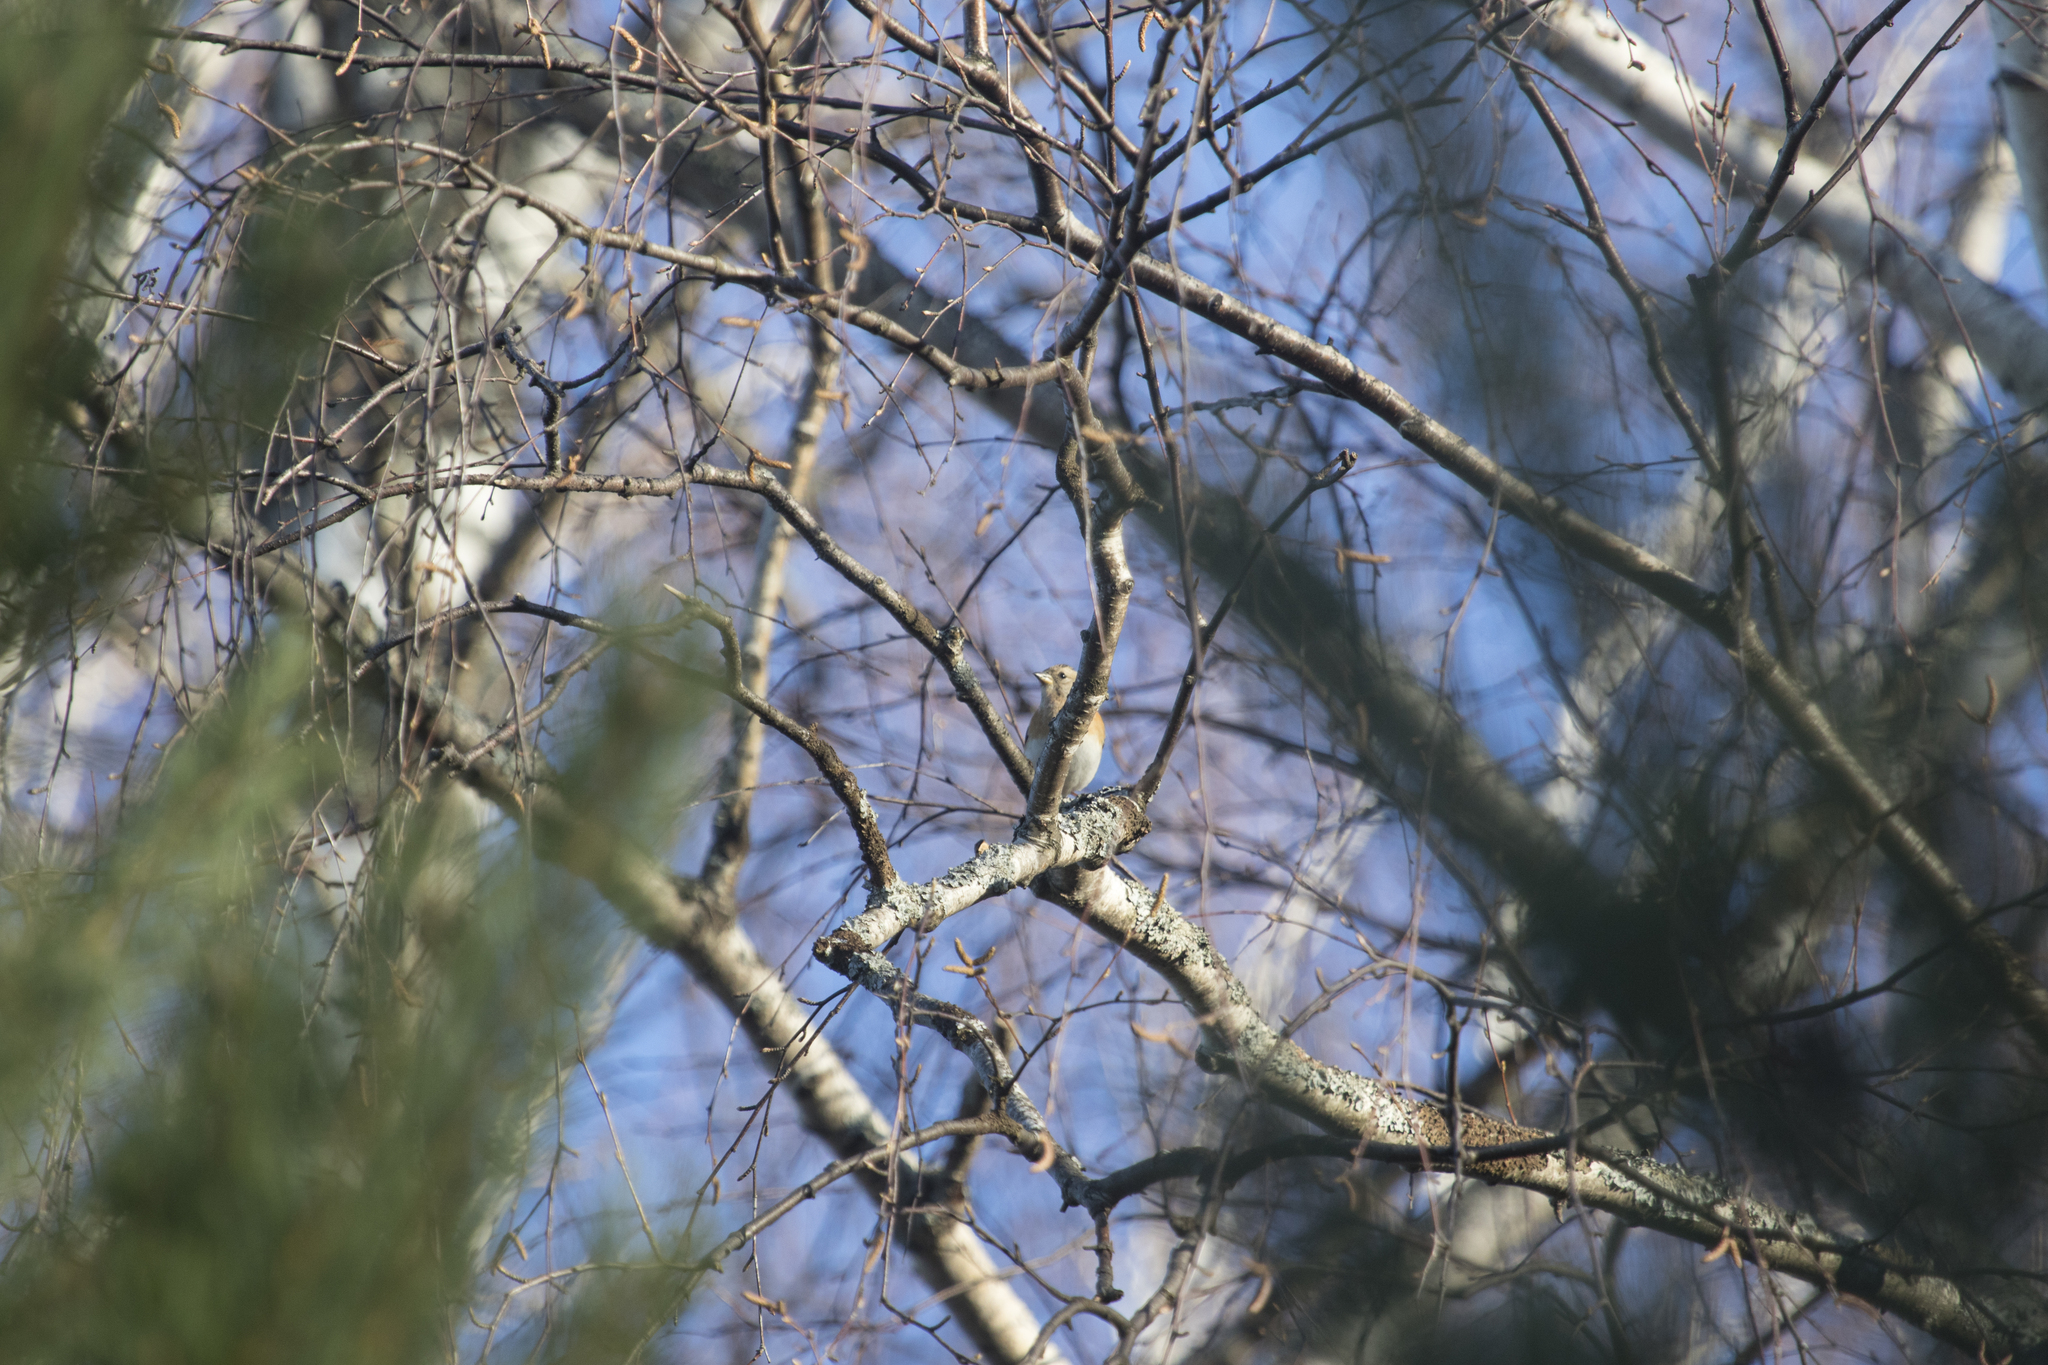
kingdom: Animalia
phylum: Chordata
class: Aves
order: Passeriformes
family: Fringillidae
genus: Fringilla
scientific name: Fringilla montifringilla
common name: Brambling
